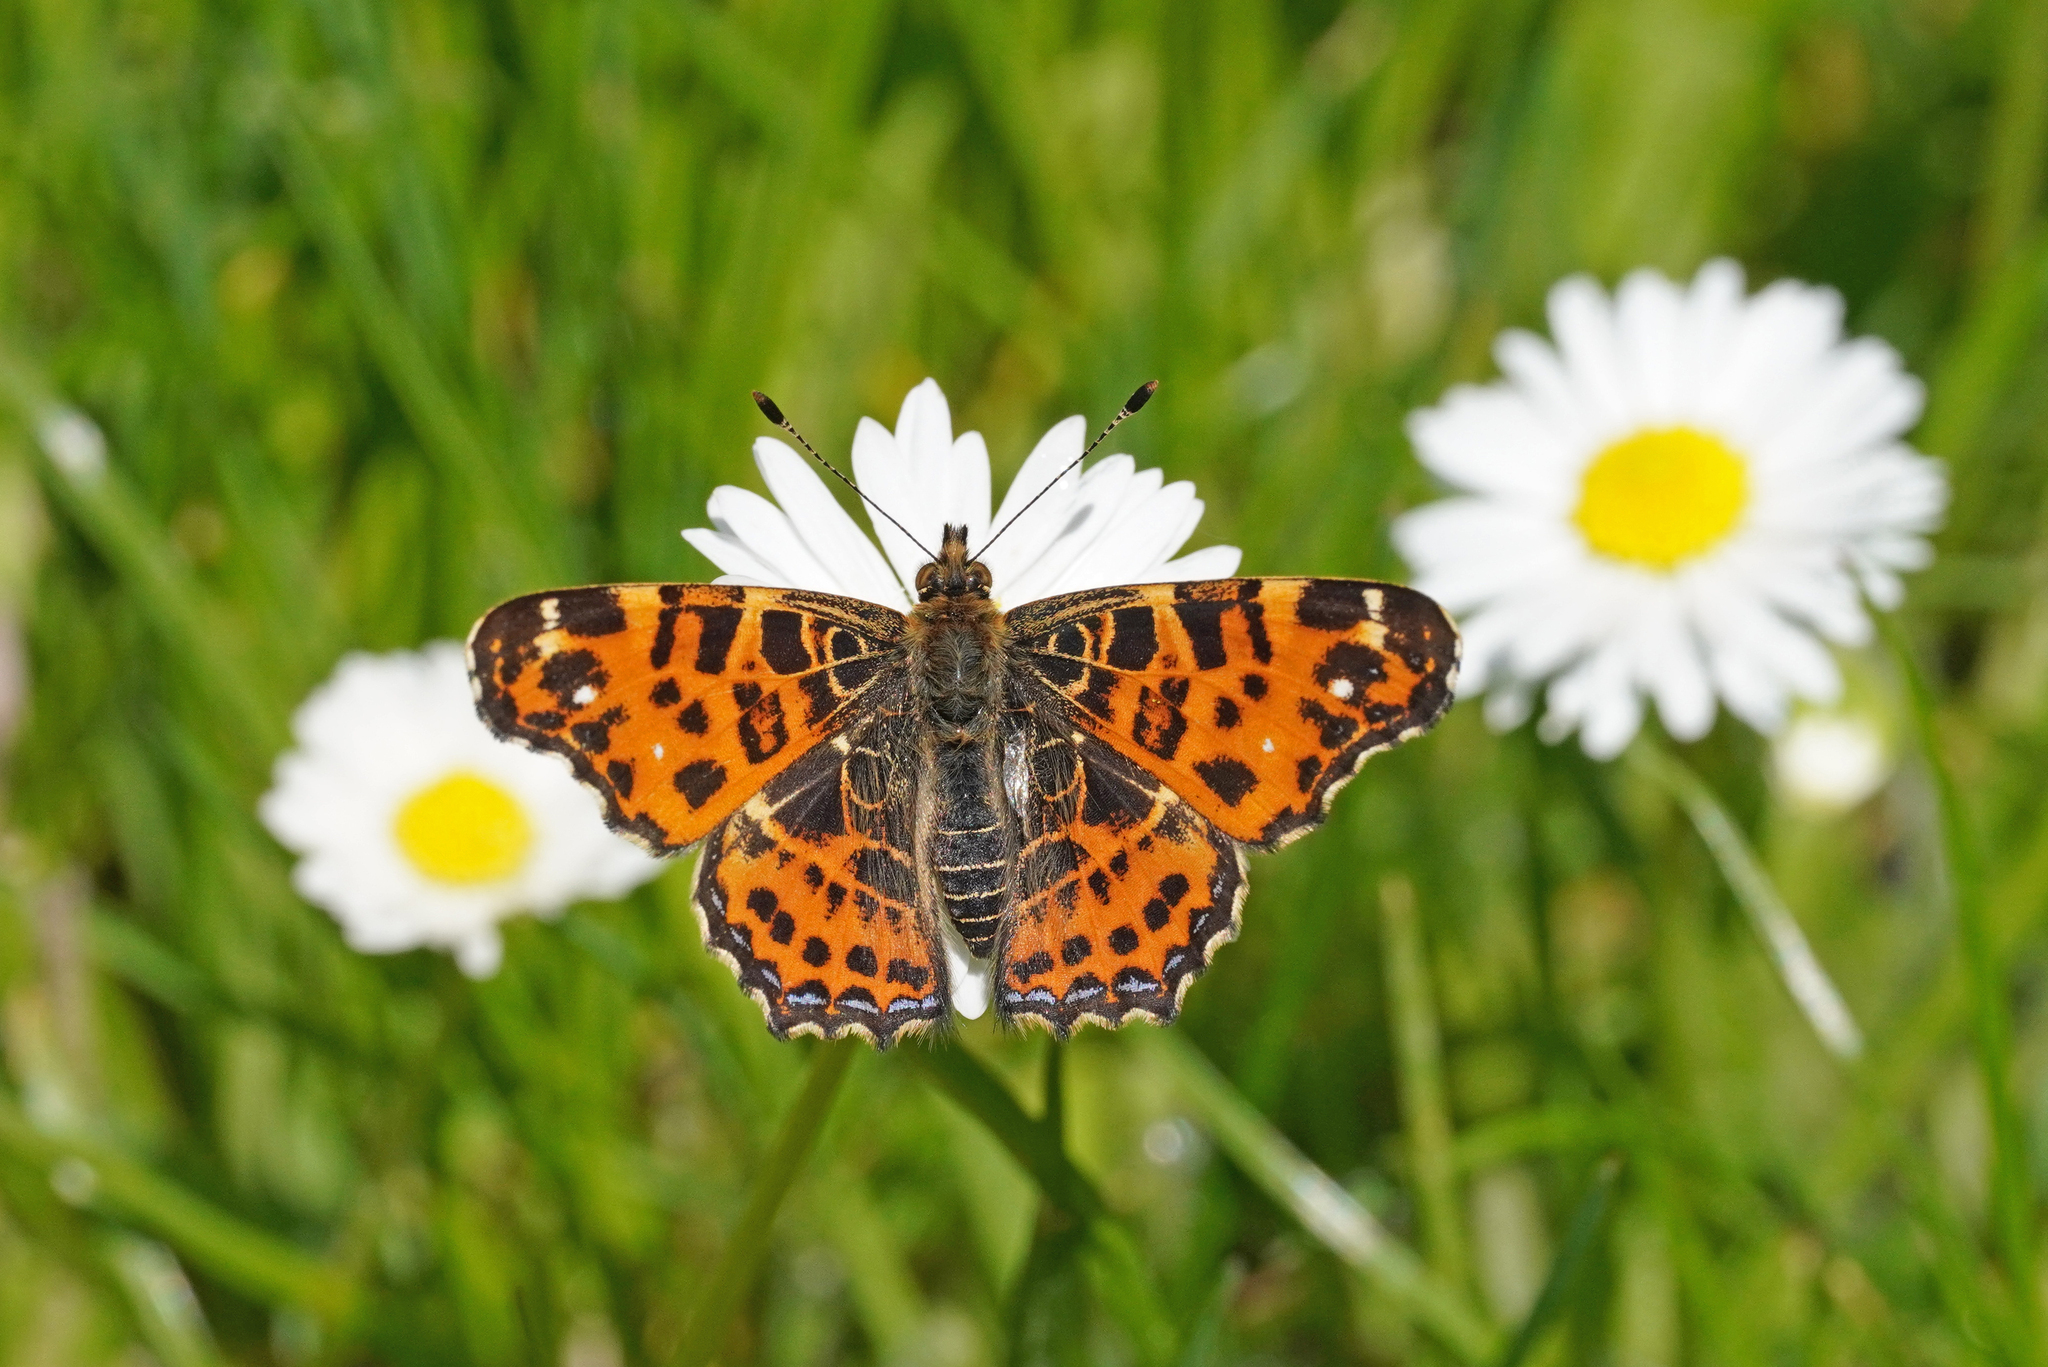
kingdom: Animalia
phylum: Arthropoda
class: Insecta
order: Lepidoptera
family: Nymphalidae
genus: Araschnia
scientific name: Araschnia levana
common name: Map butterfly
